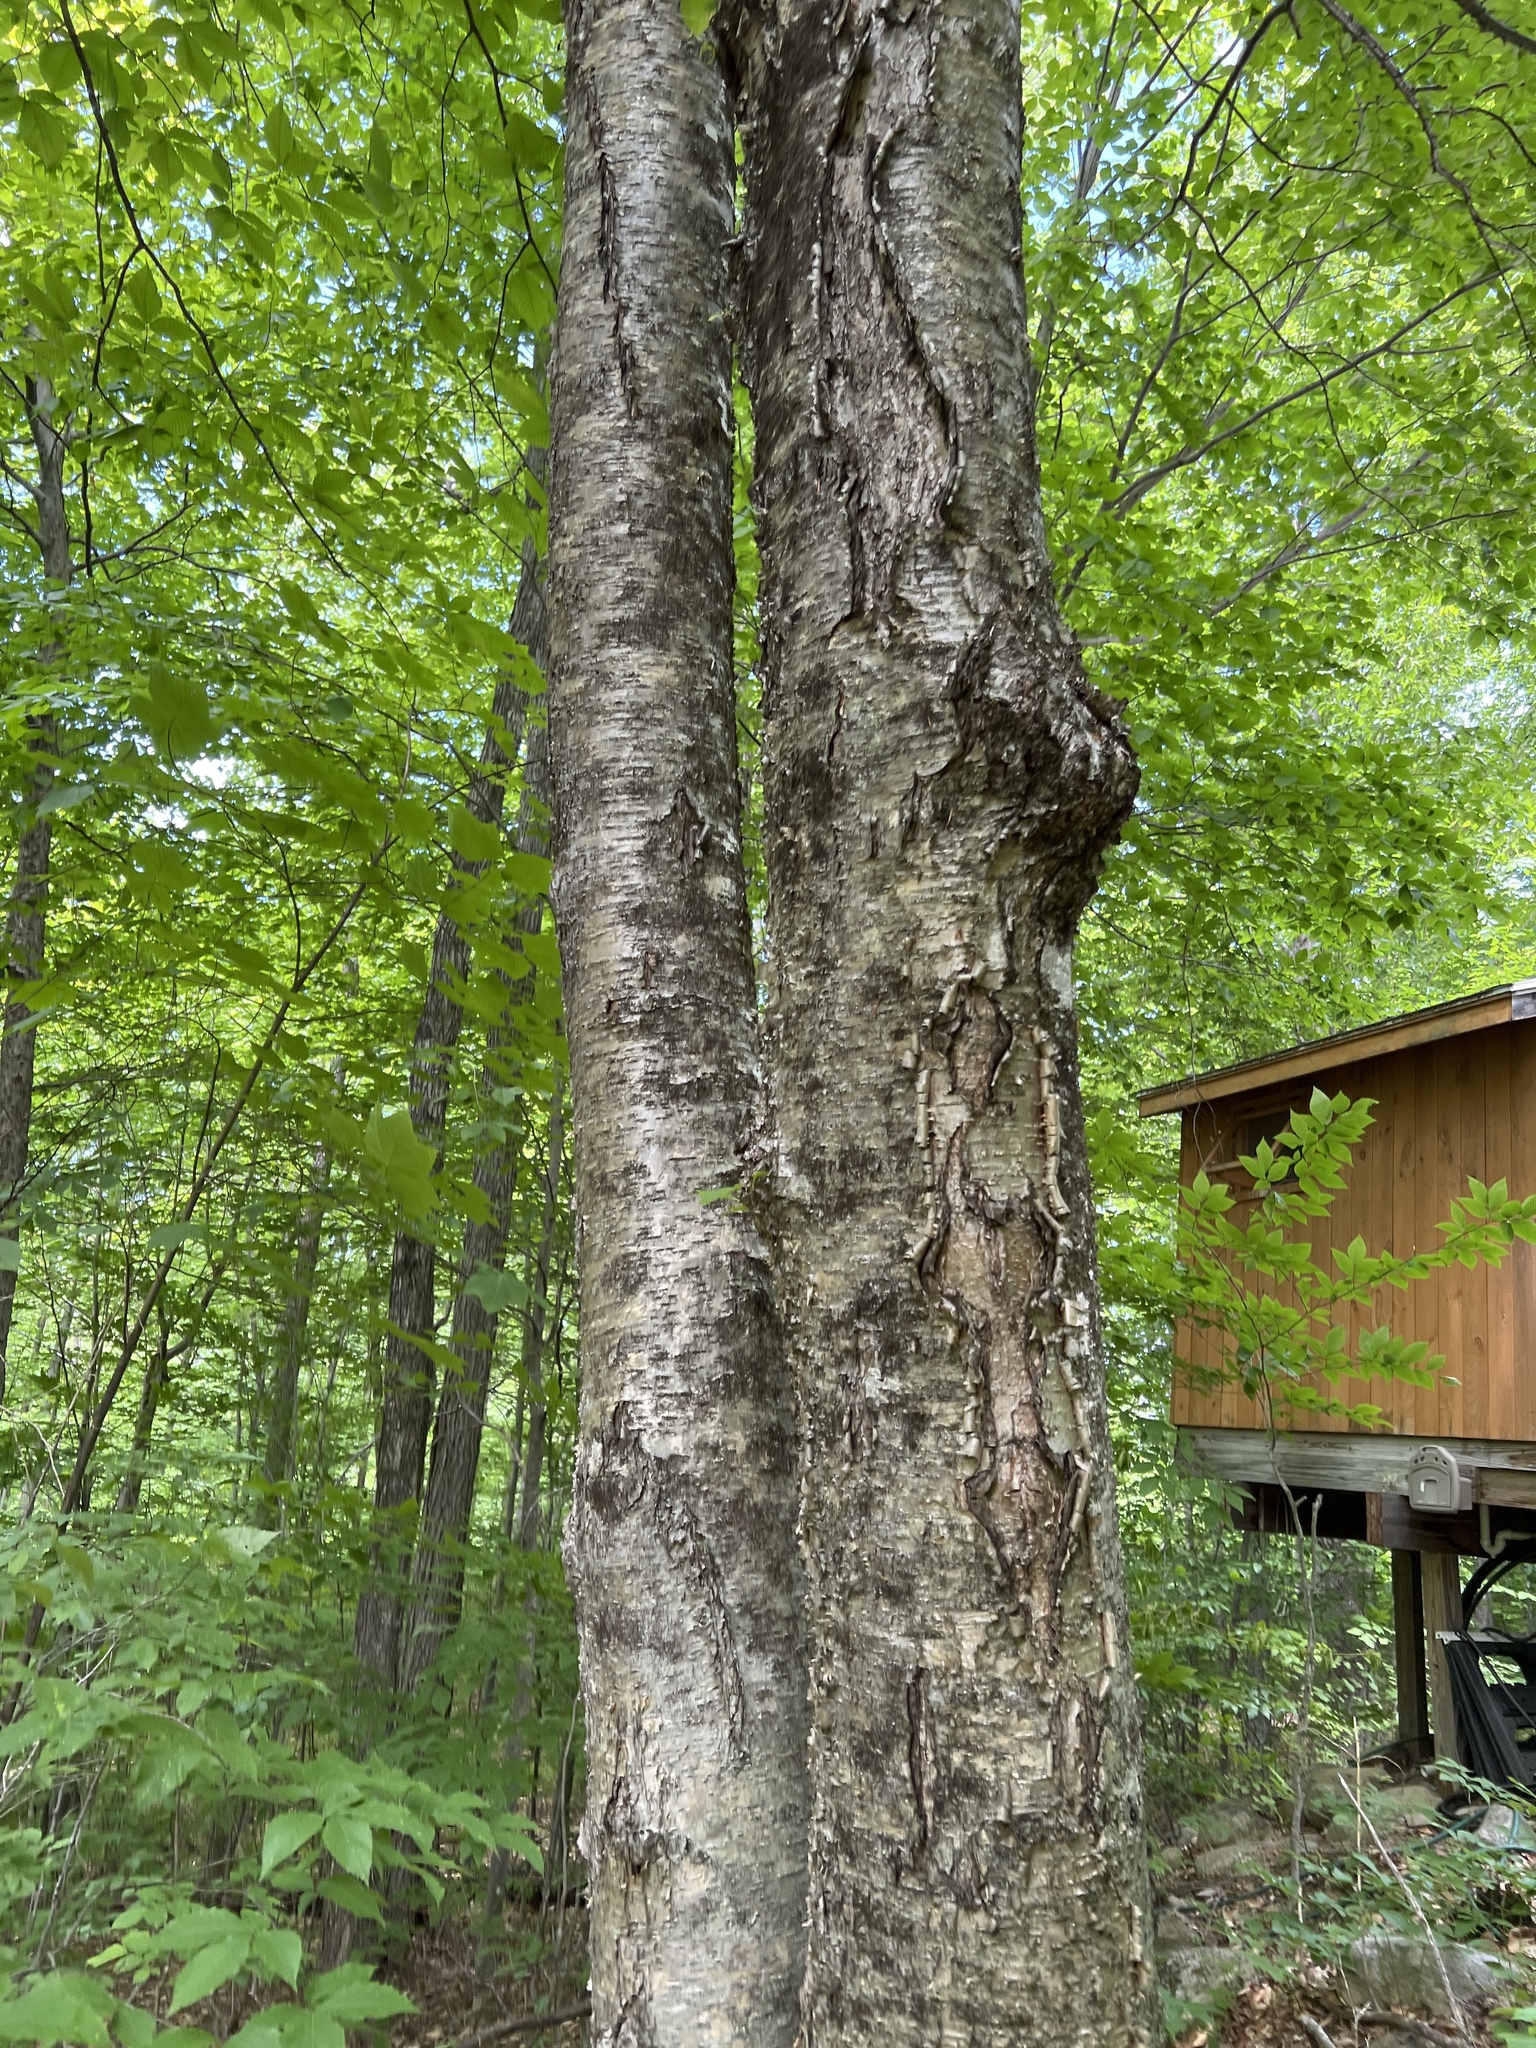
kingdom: Plantae
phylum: Tracheophyta
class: Magnoliopsida
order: Fagales
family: Betulaceae
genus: Betula
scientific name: Betula alleghaniensis
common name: Yellow birch
